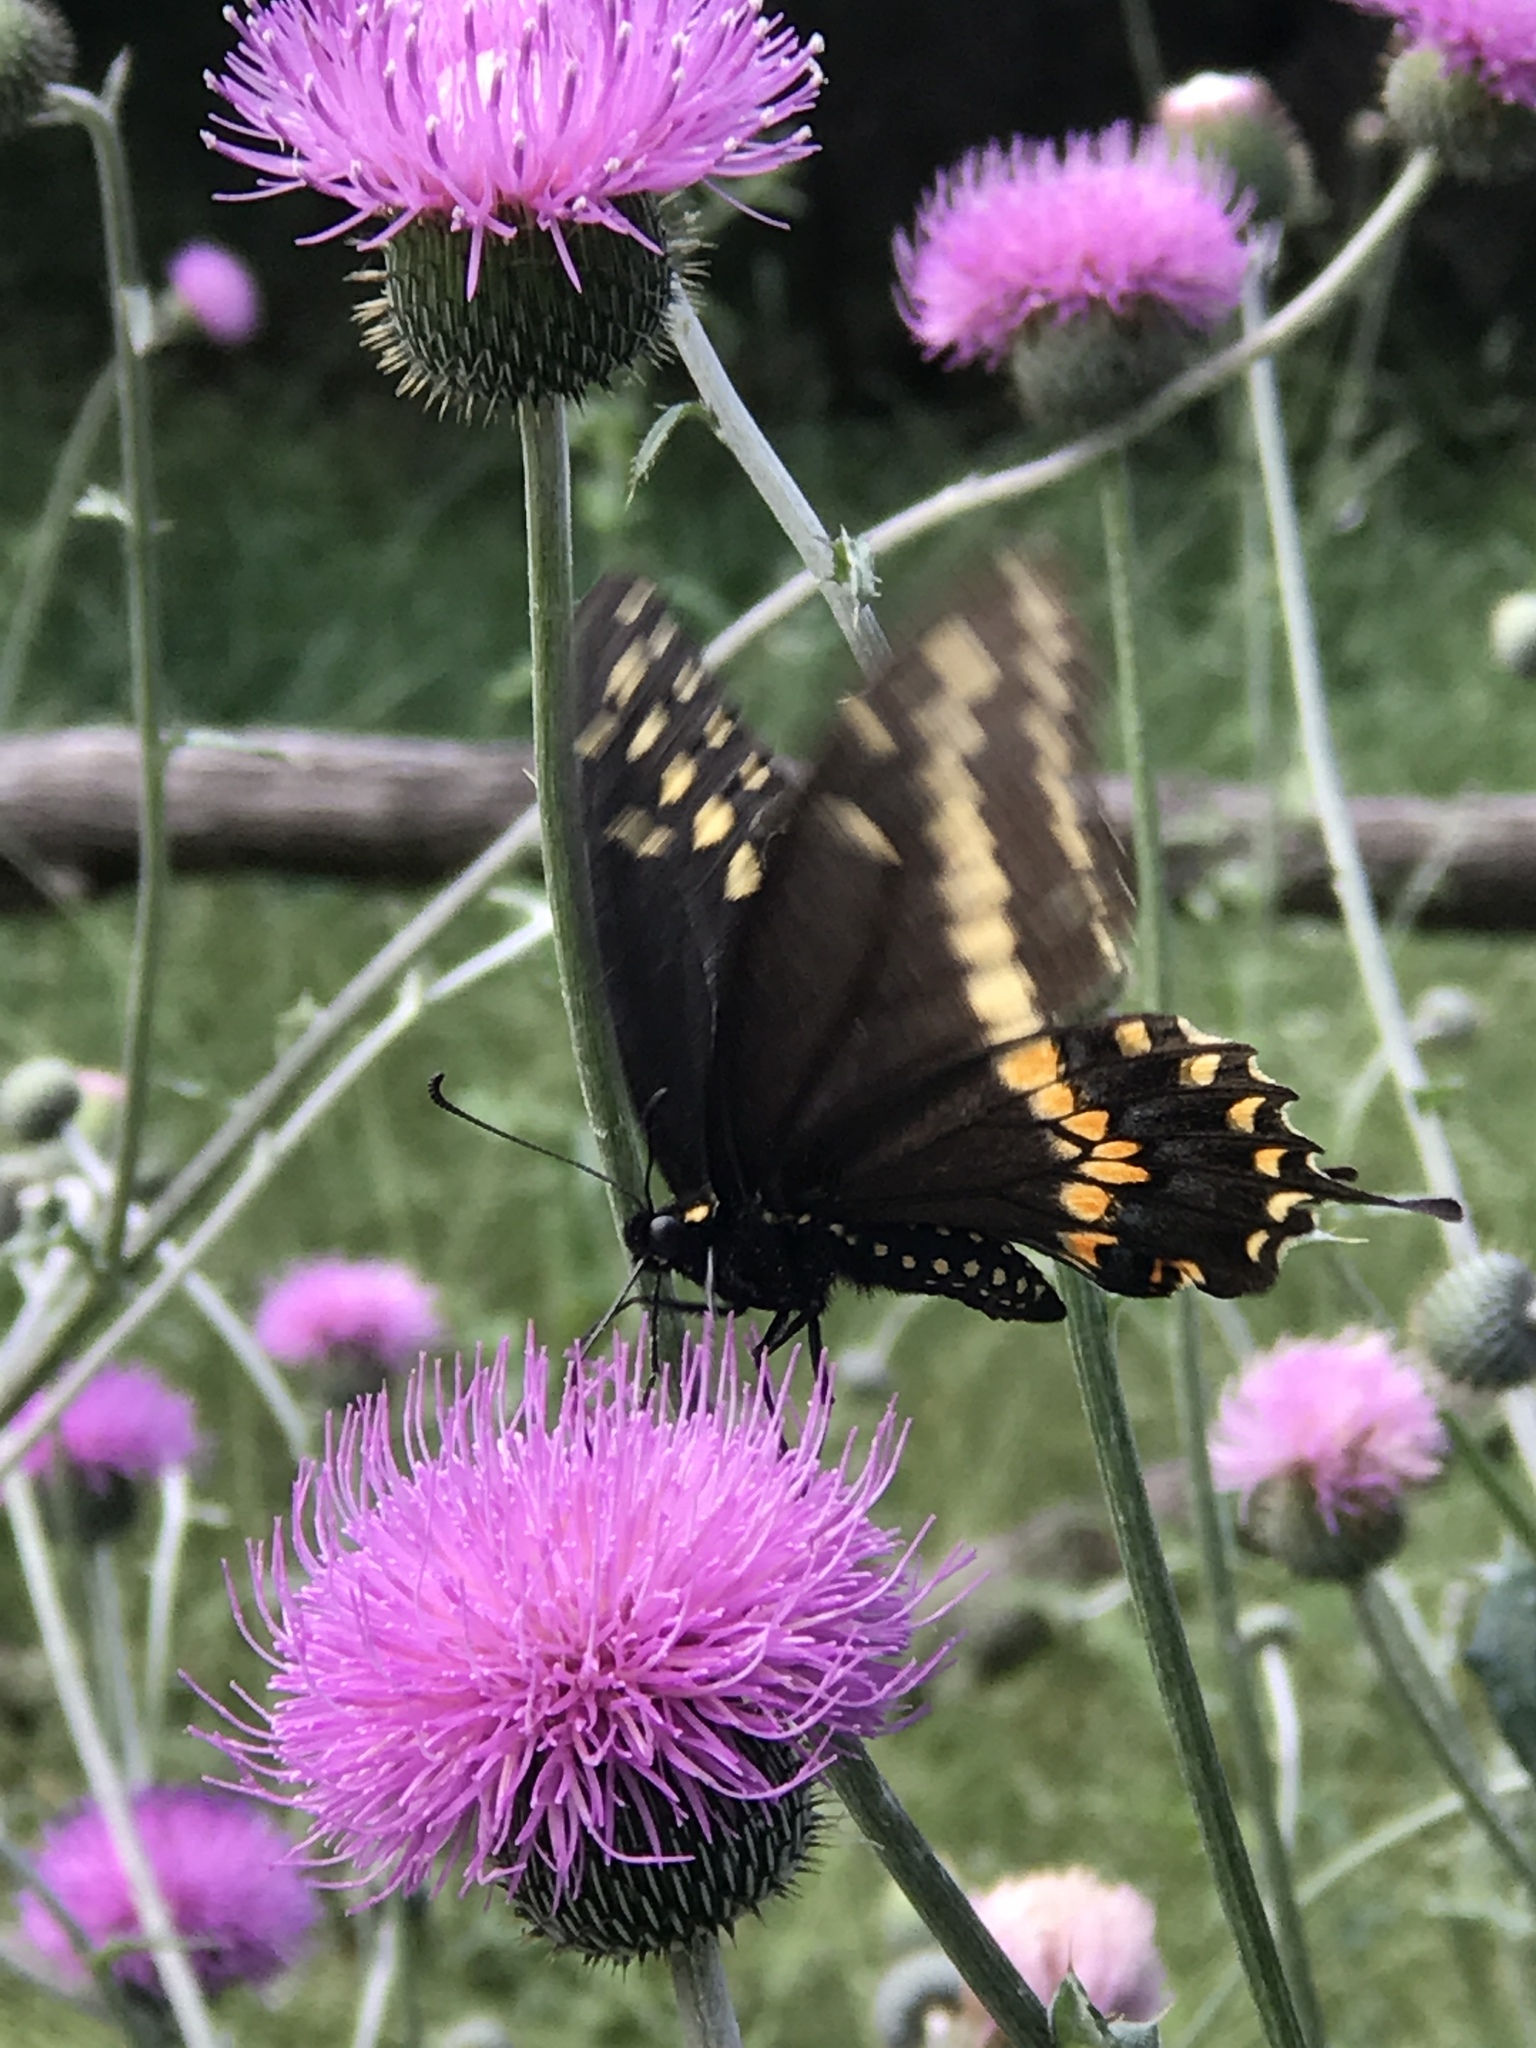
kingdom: Animalia
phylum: Arthropoda
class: Insecta
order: Lepidoptera
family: Papilionidae
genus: Papilio
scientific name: Papilio polyxenes
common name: Black swallowtail
